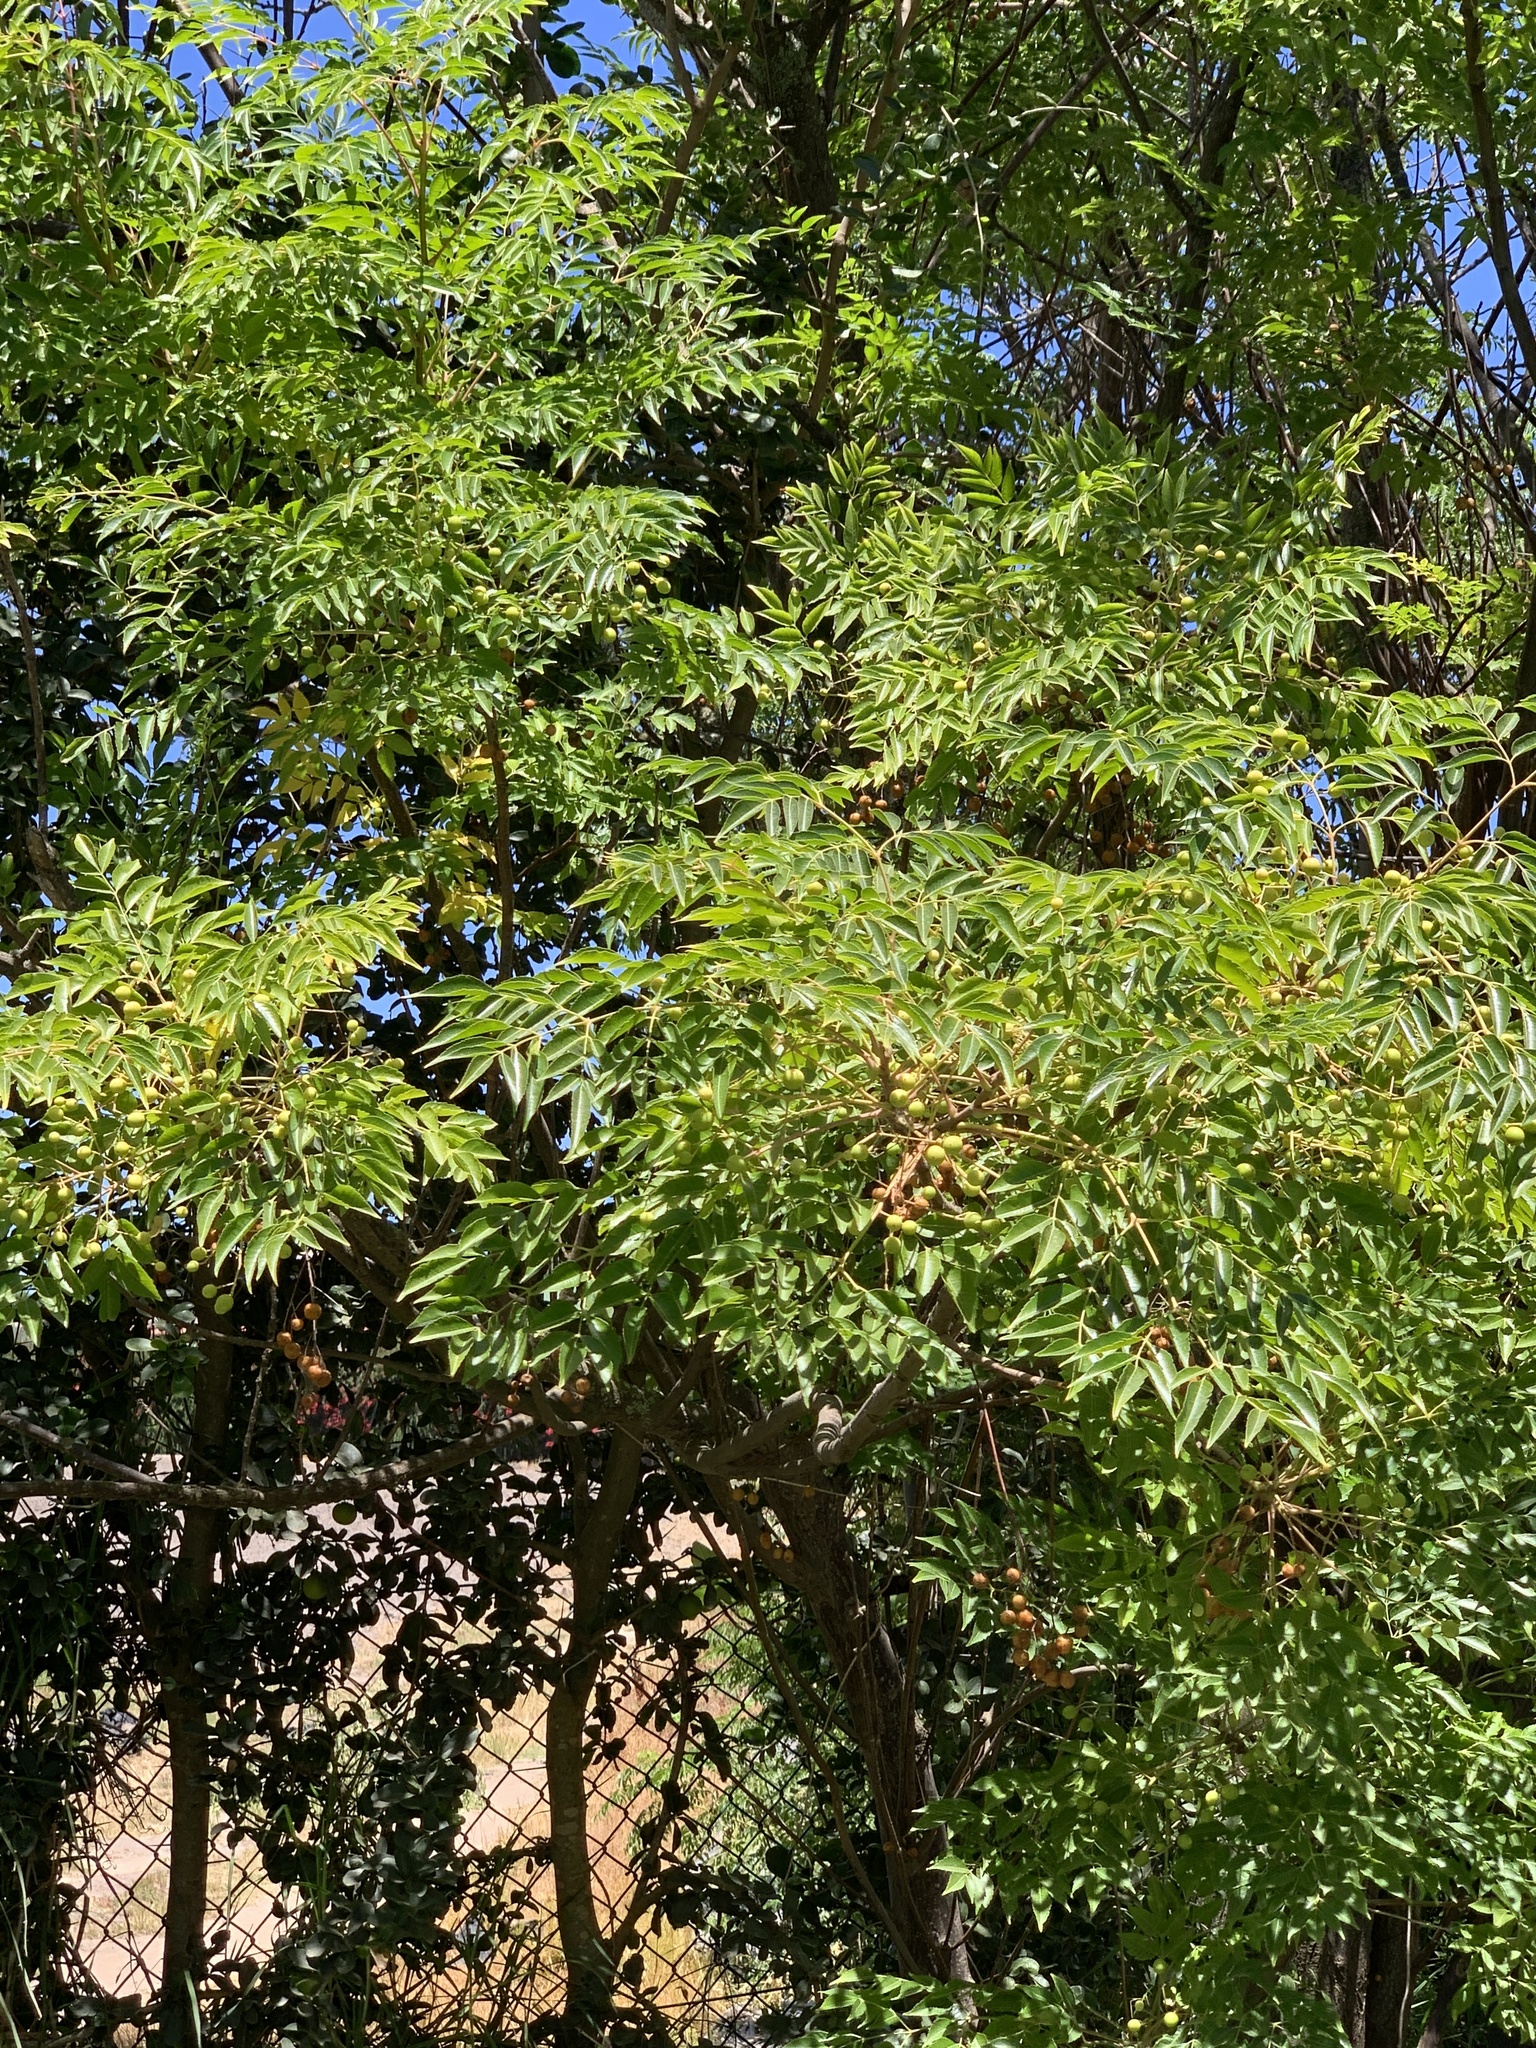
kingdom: Plantae
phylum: Tracheophyta
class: Magnoliopsida
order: Sapindales
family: Meliaceae
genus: Melia
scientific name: Melia azedarach
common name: Chinaberrytree
